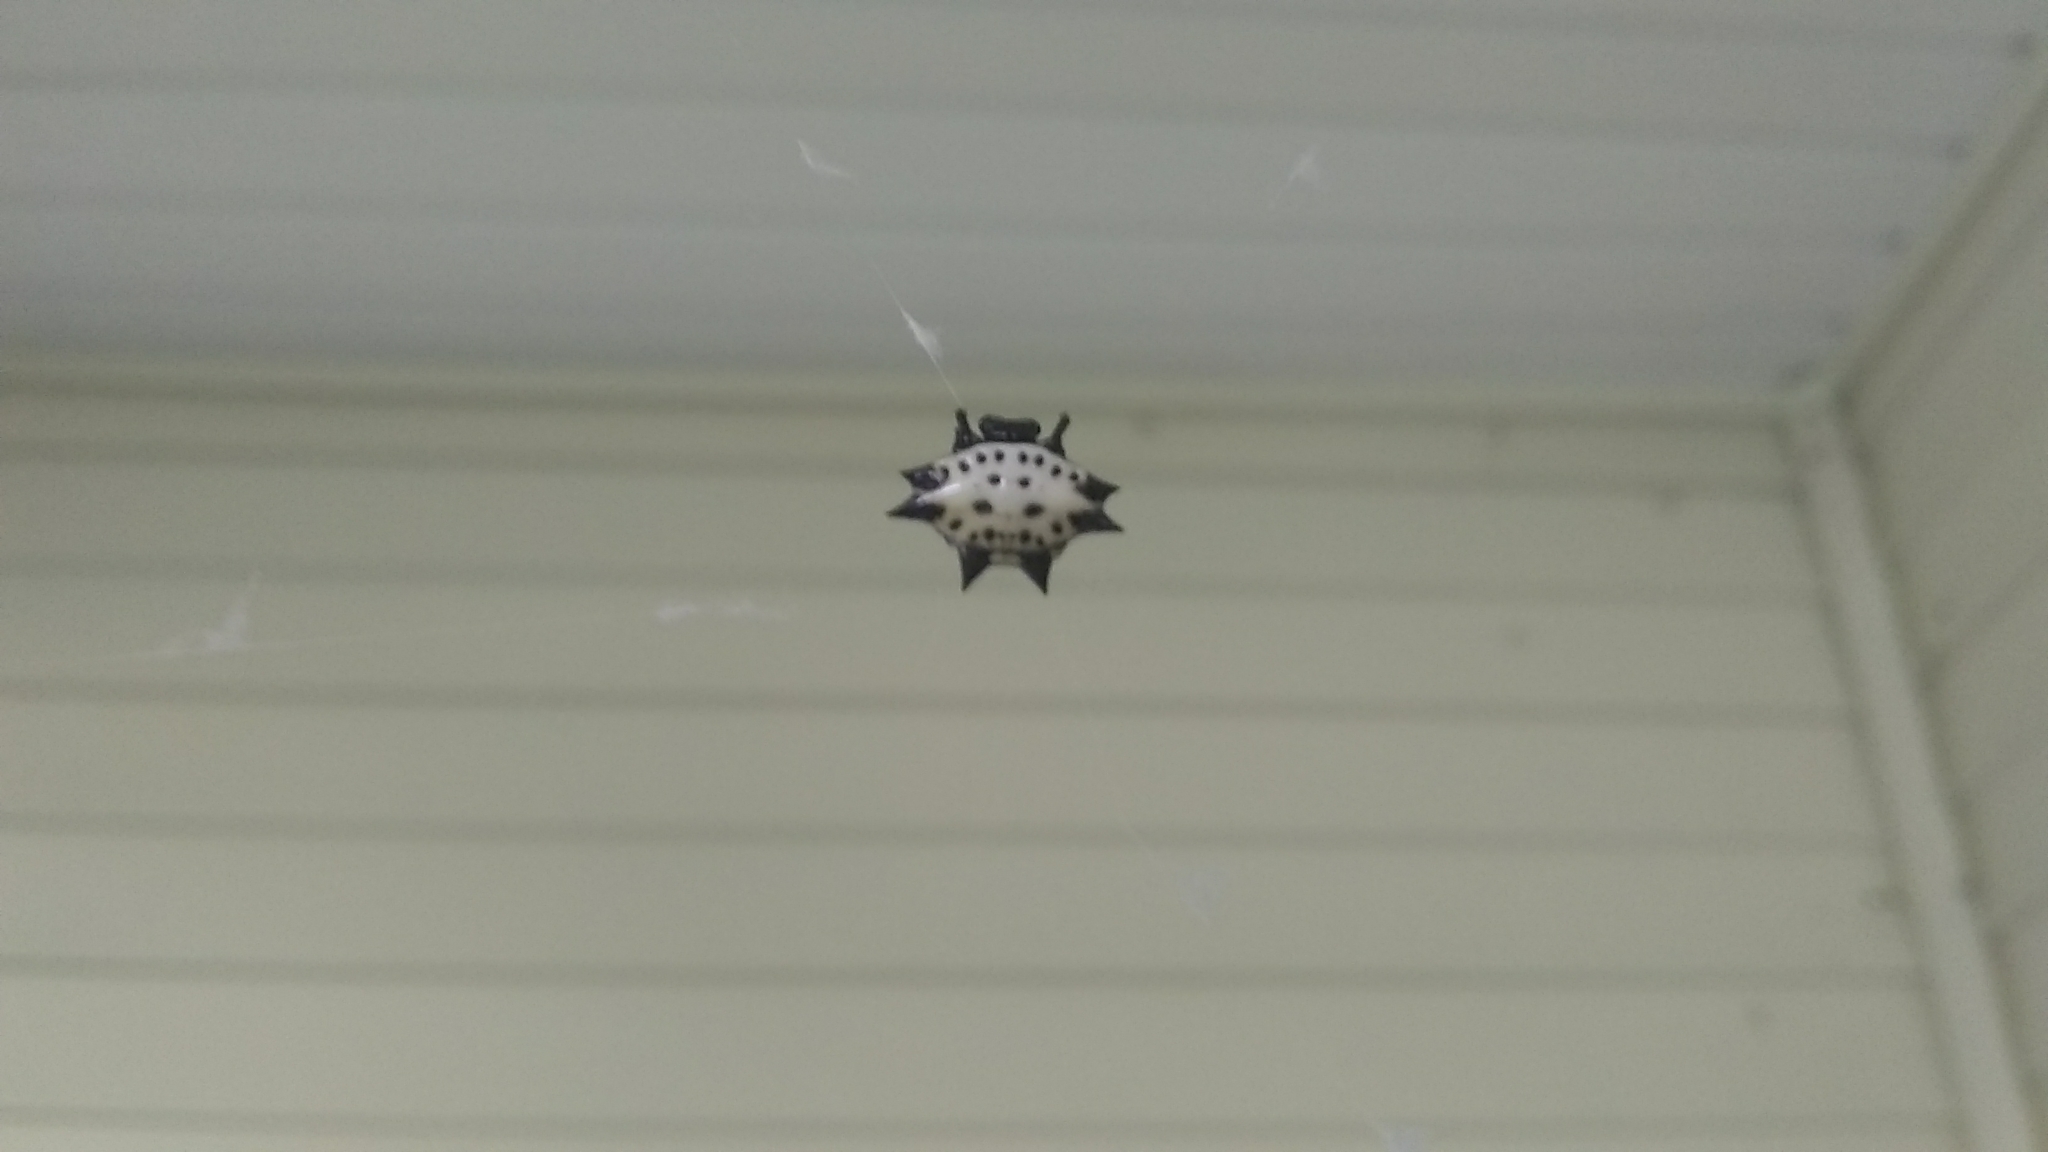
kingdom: Animalia
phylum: Arthropoda
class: Arachnida
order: Araneae
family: Araneidae
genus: Gasteracantha
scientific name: Gasteracantha cancriformis
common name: Orb weavers
